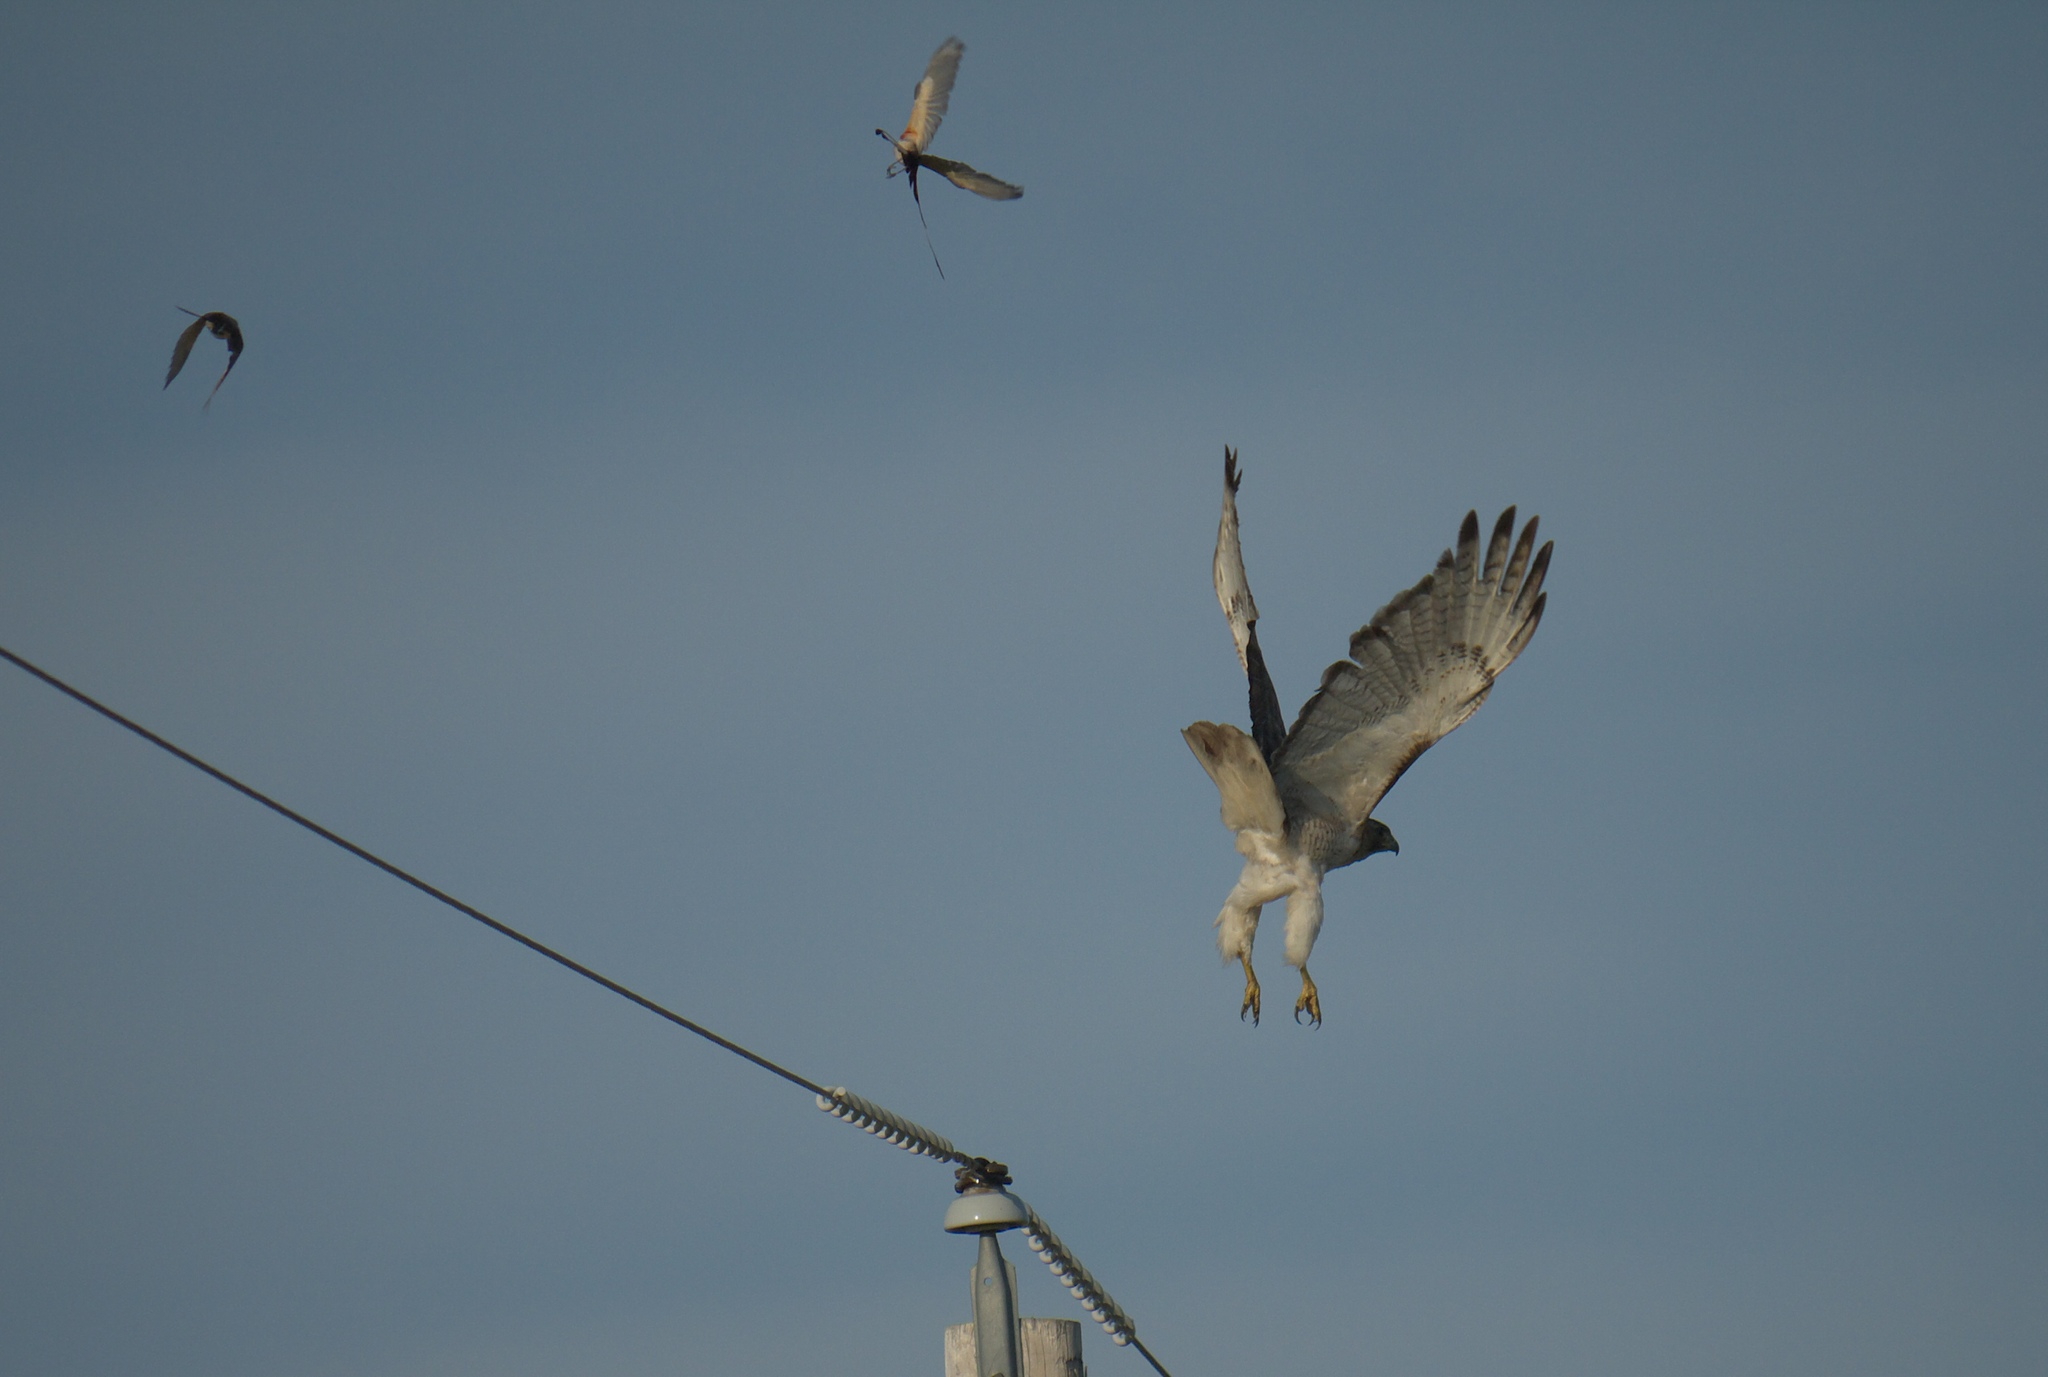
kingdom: Animalia
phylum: Chordata
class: Aves
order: Accipitriformes
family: Accipitridae
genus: Buteo
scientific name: Buteo jamaicensis
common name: Red-tailed hawk
